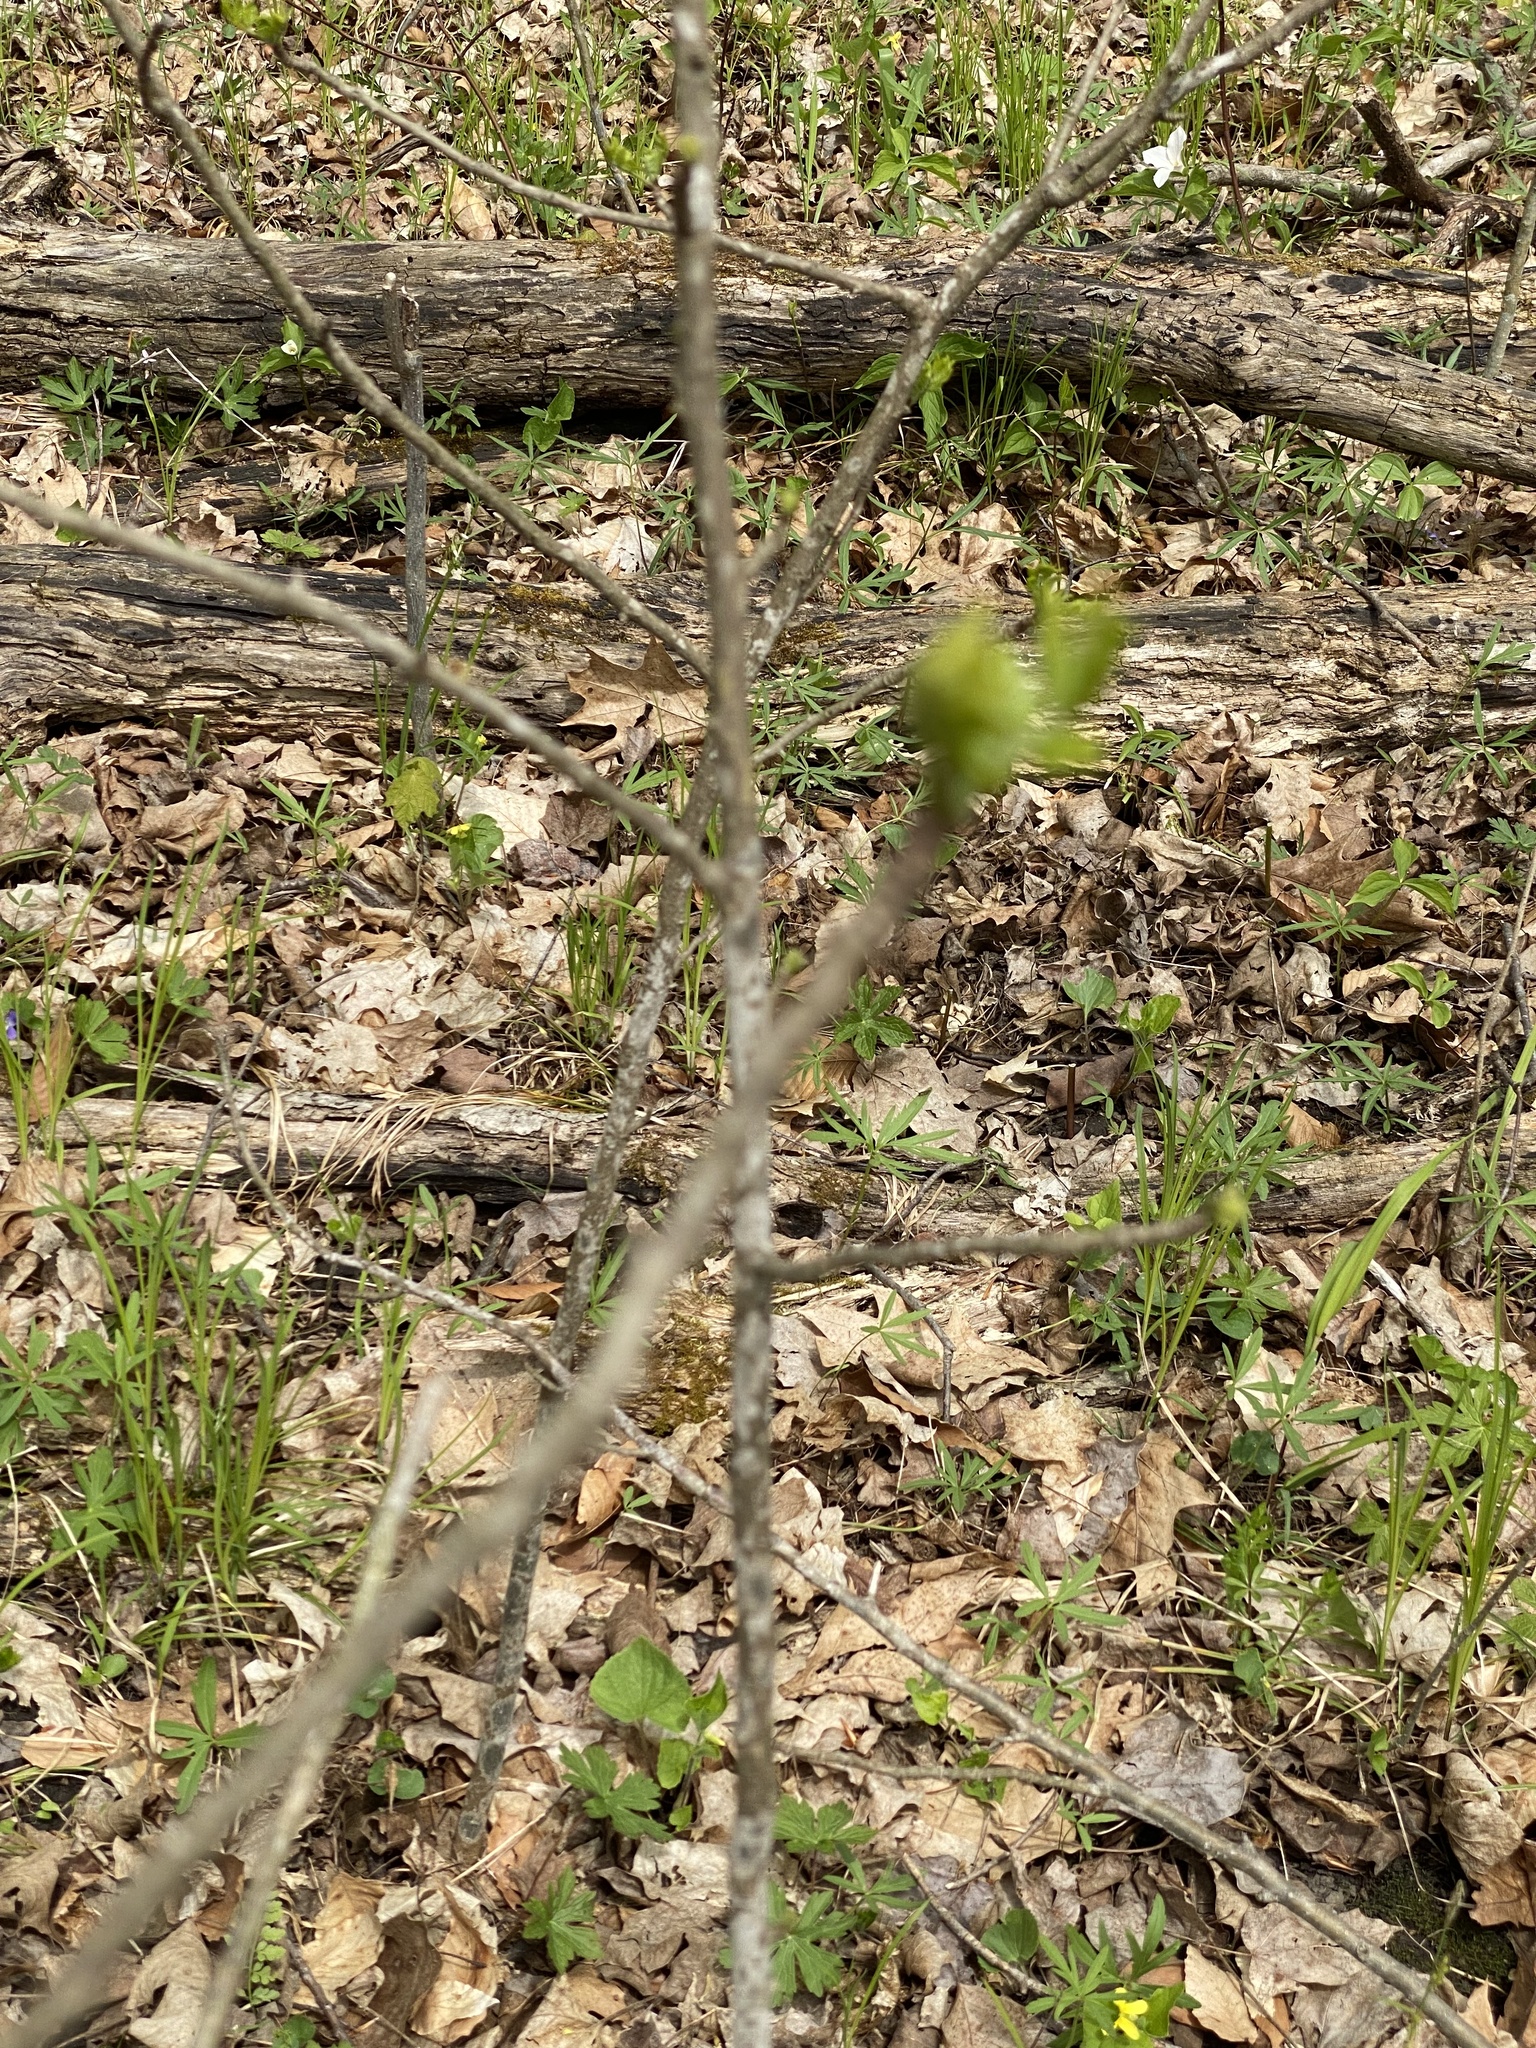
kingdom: Plantae
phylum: Tracheophyta
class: Magnoliopsida
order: Sapindales
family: Rutaceae
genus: Zanthoxylum
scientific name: Zanthoxylum americanum
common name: Northern prickly-ash
